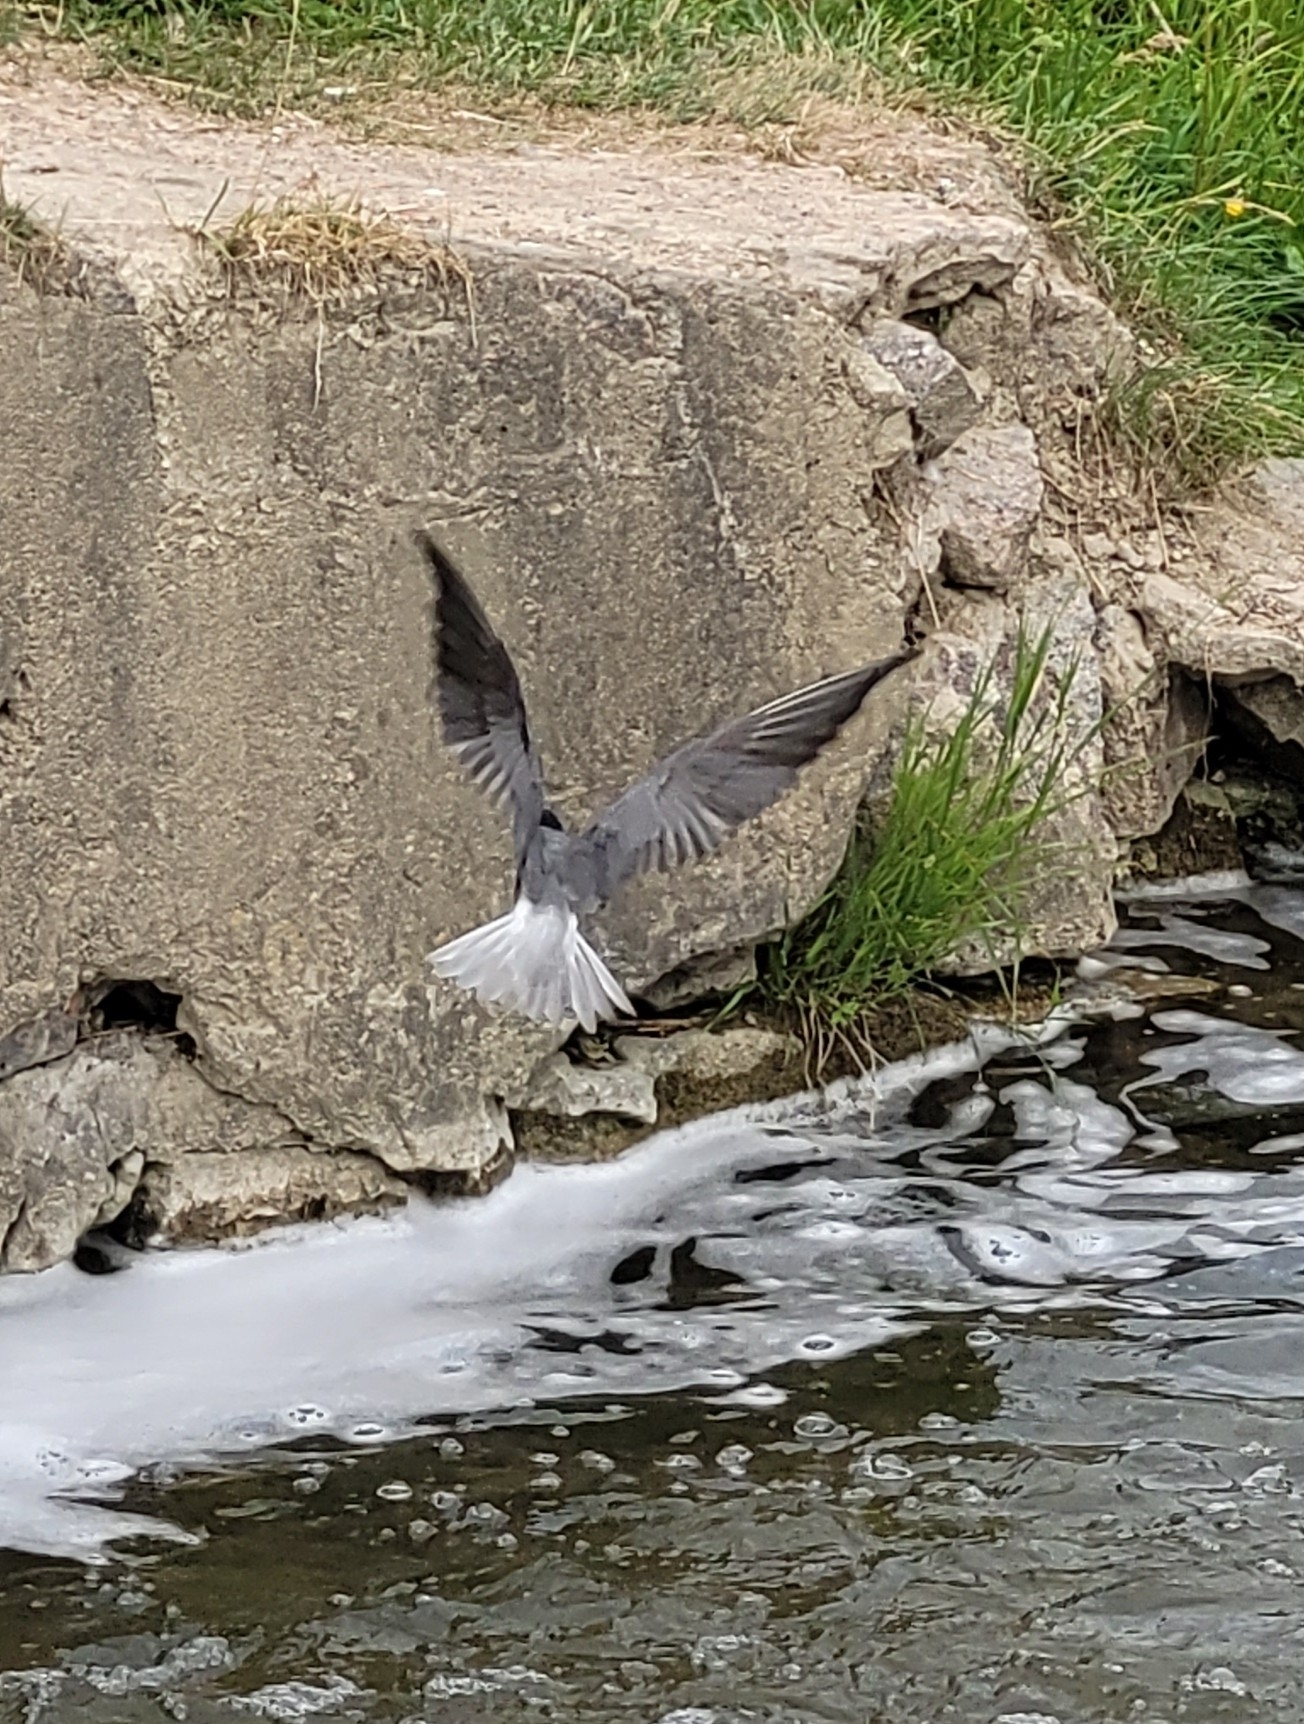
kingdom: Animalia
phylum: Chordata
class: Aves
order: Charadriiformes
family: Laridae
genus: Chlidonias
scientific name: Chlidonias niger
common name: Black tern
